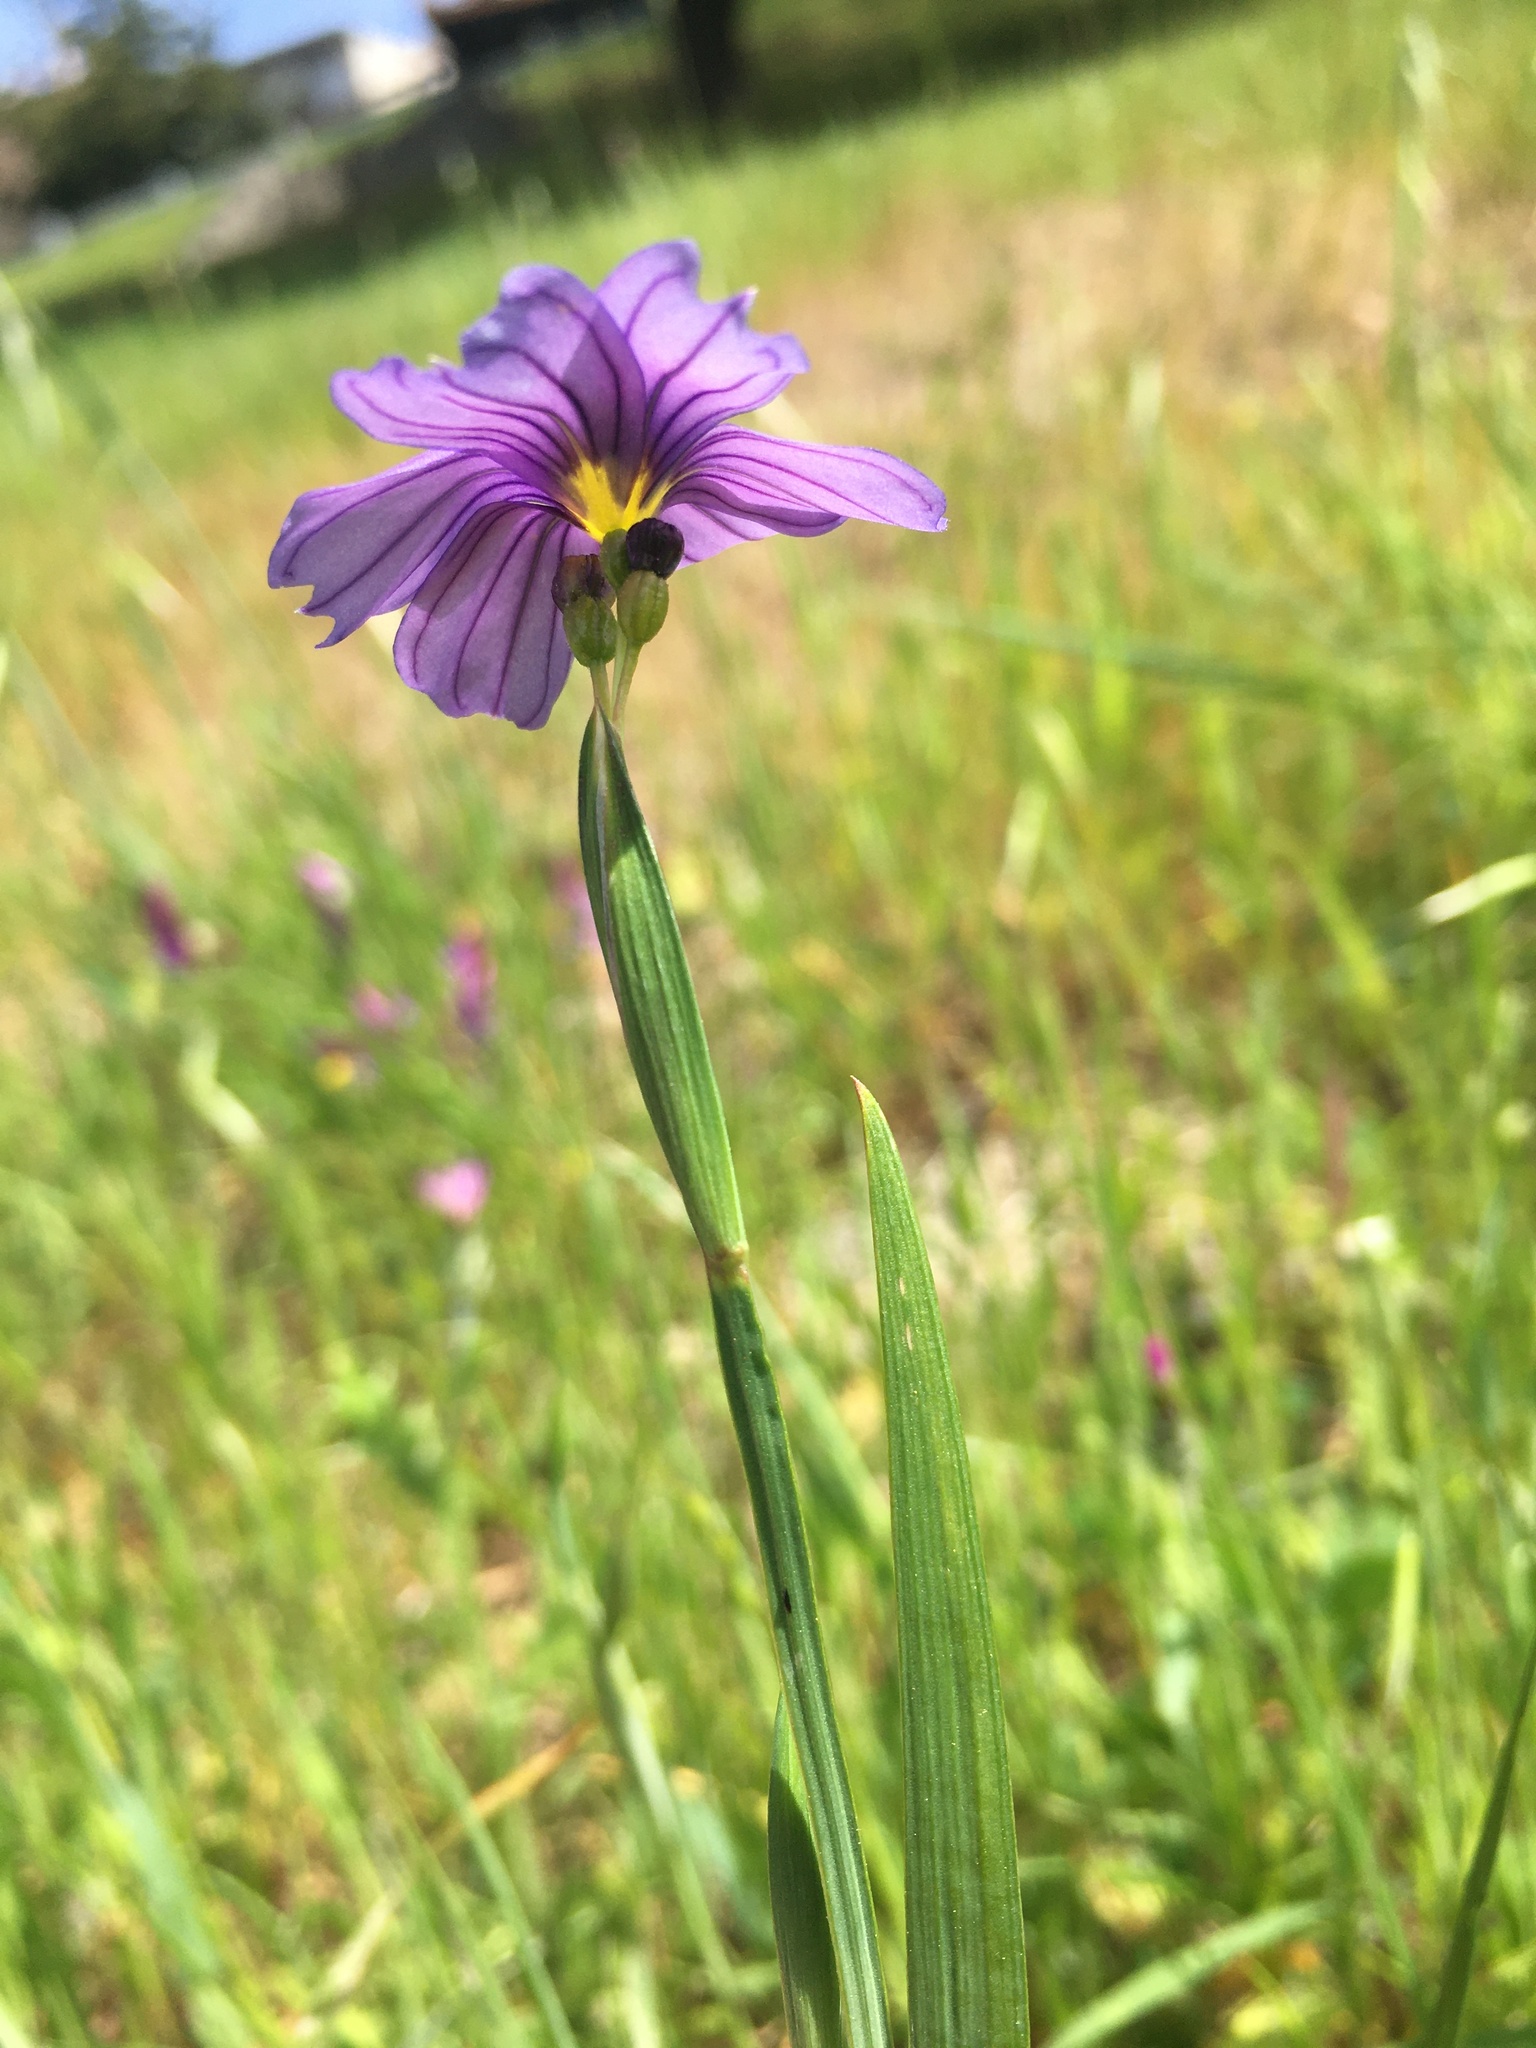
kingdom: Plantae
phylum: Tracheophyta
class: Liliopsida
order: Asparagales
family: Iridaceae
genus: Sisyrinchium
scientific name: Sisyrinchium bellum
